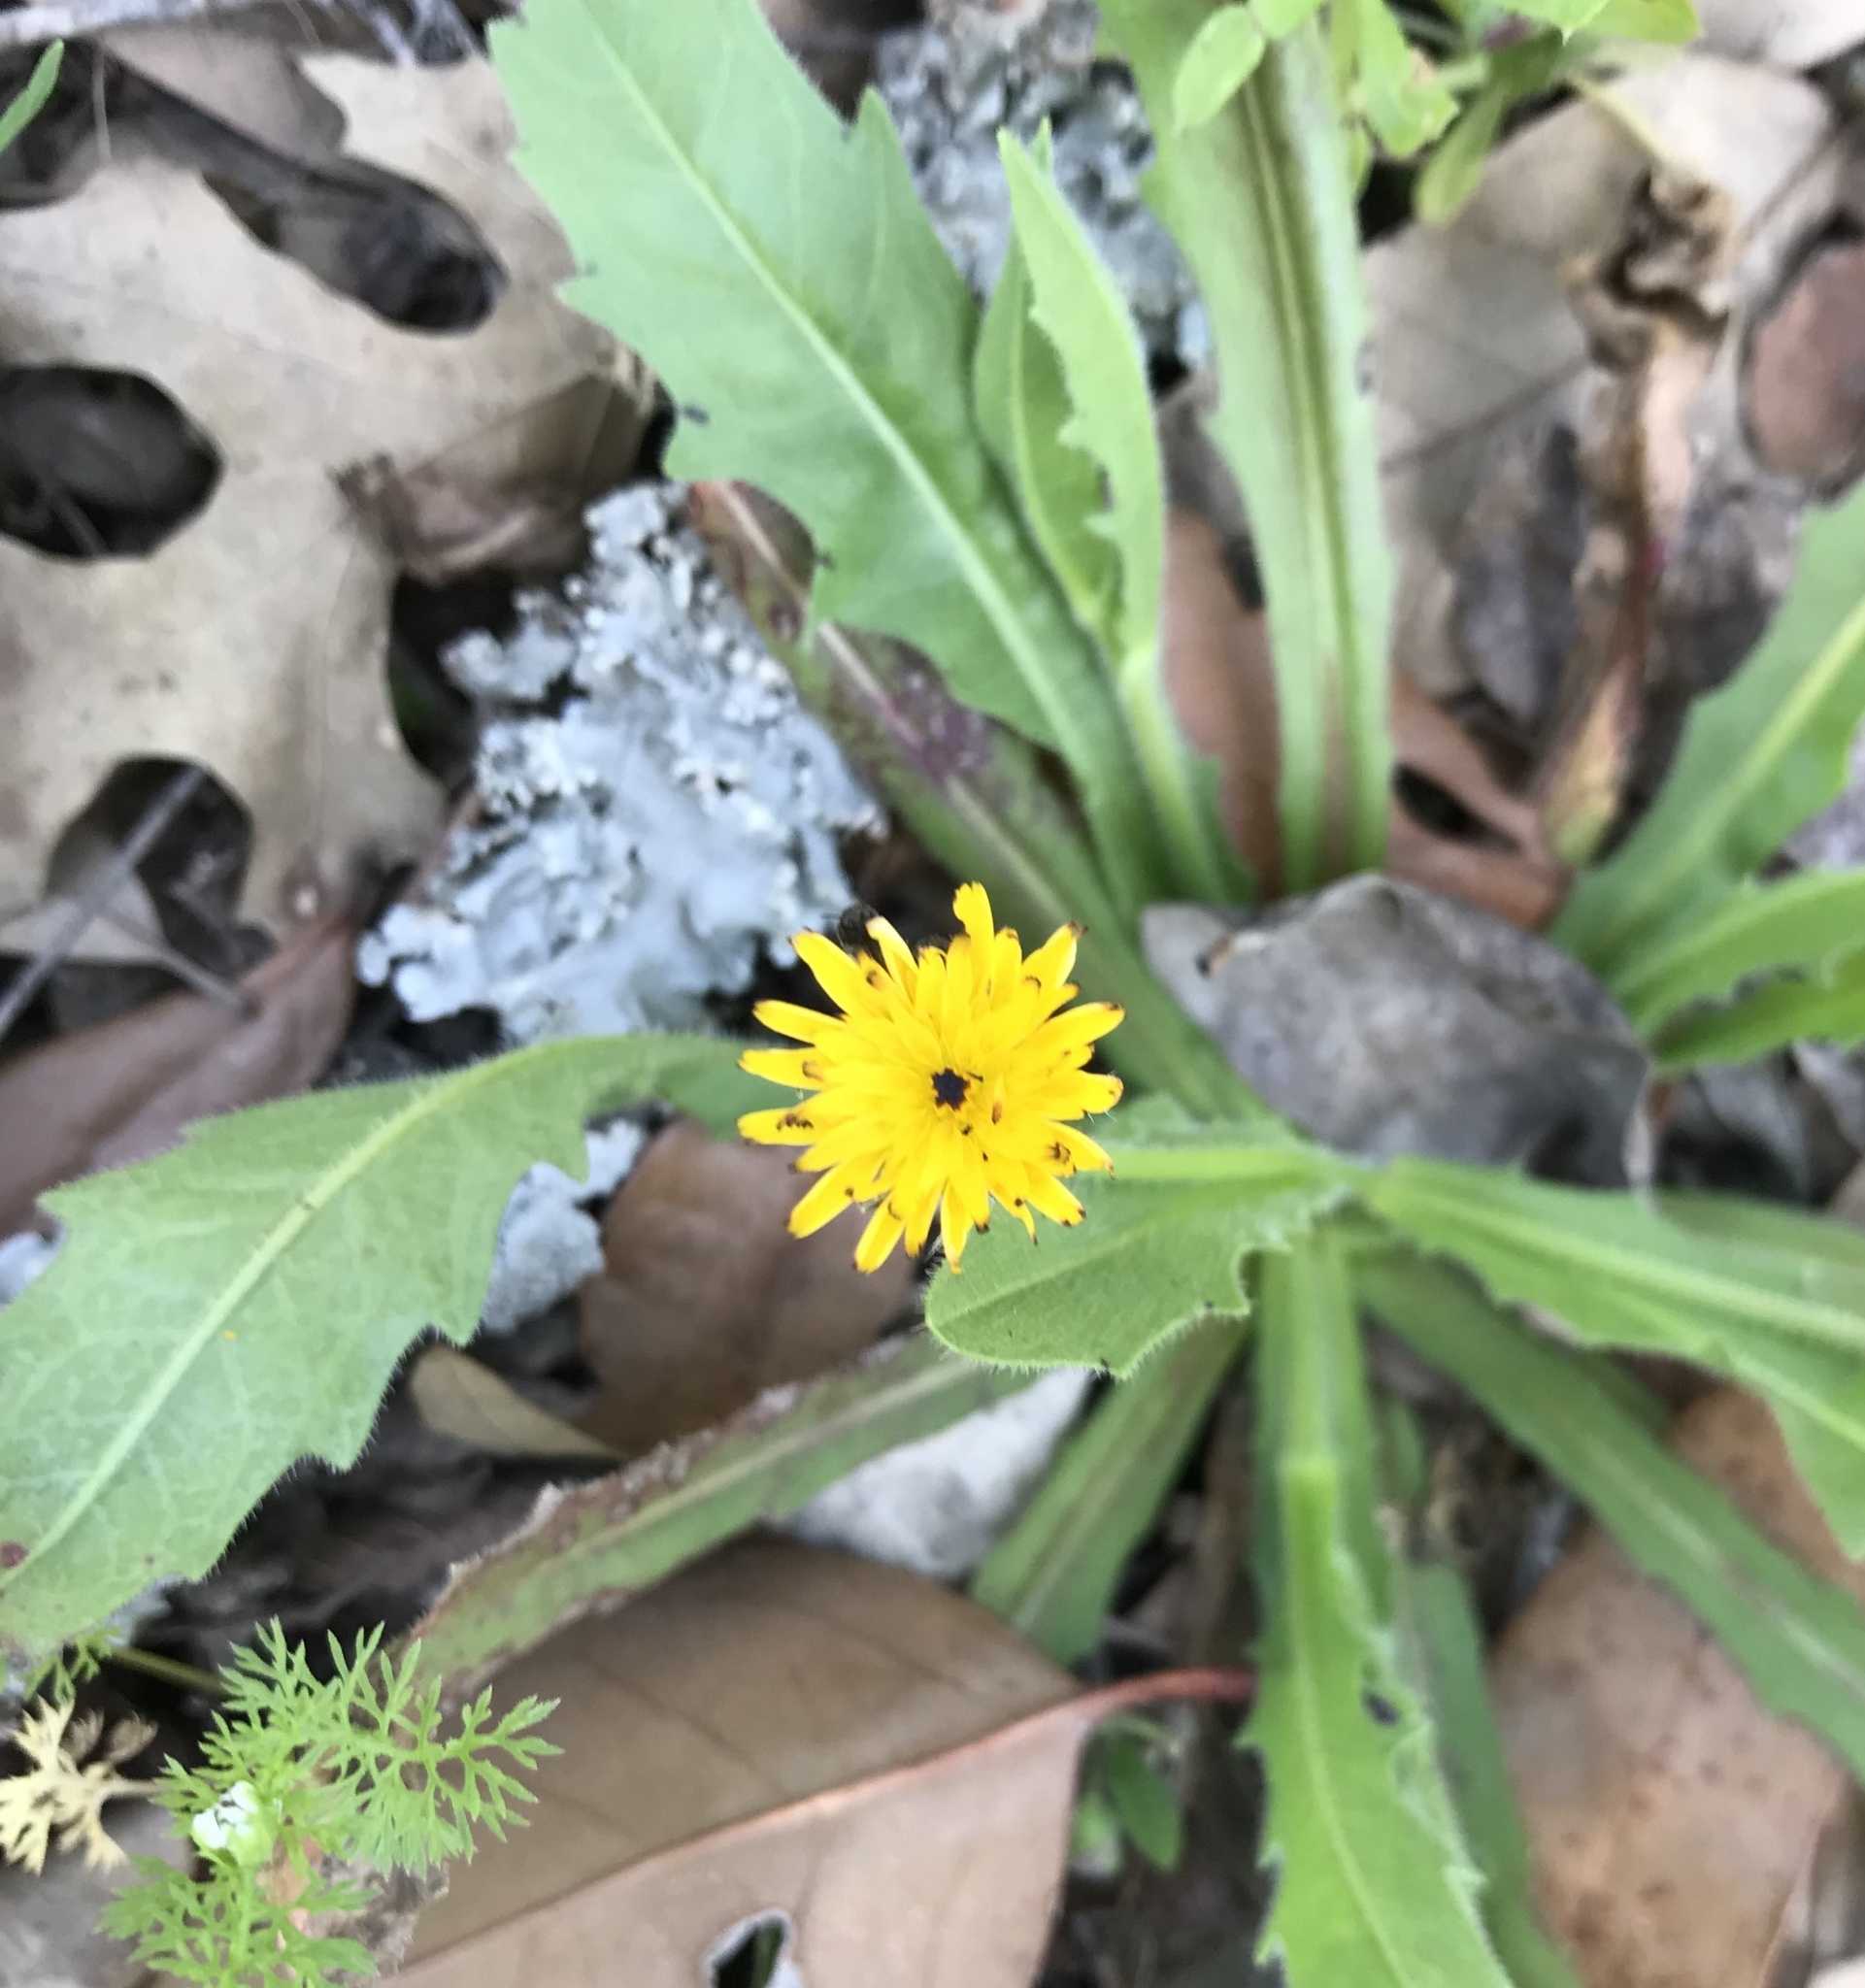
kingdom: Plantae
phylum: Tracheophyta
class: Magnoliopsida
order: Asterales
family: Asteraceae
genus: Hedypnois
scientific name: Hedypnois rhagadioloides
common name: Cretan weed
